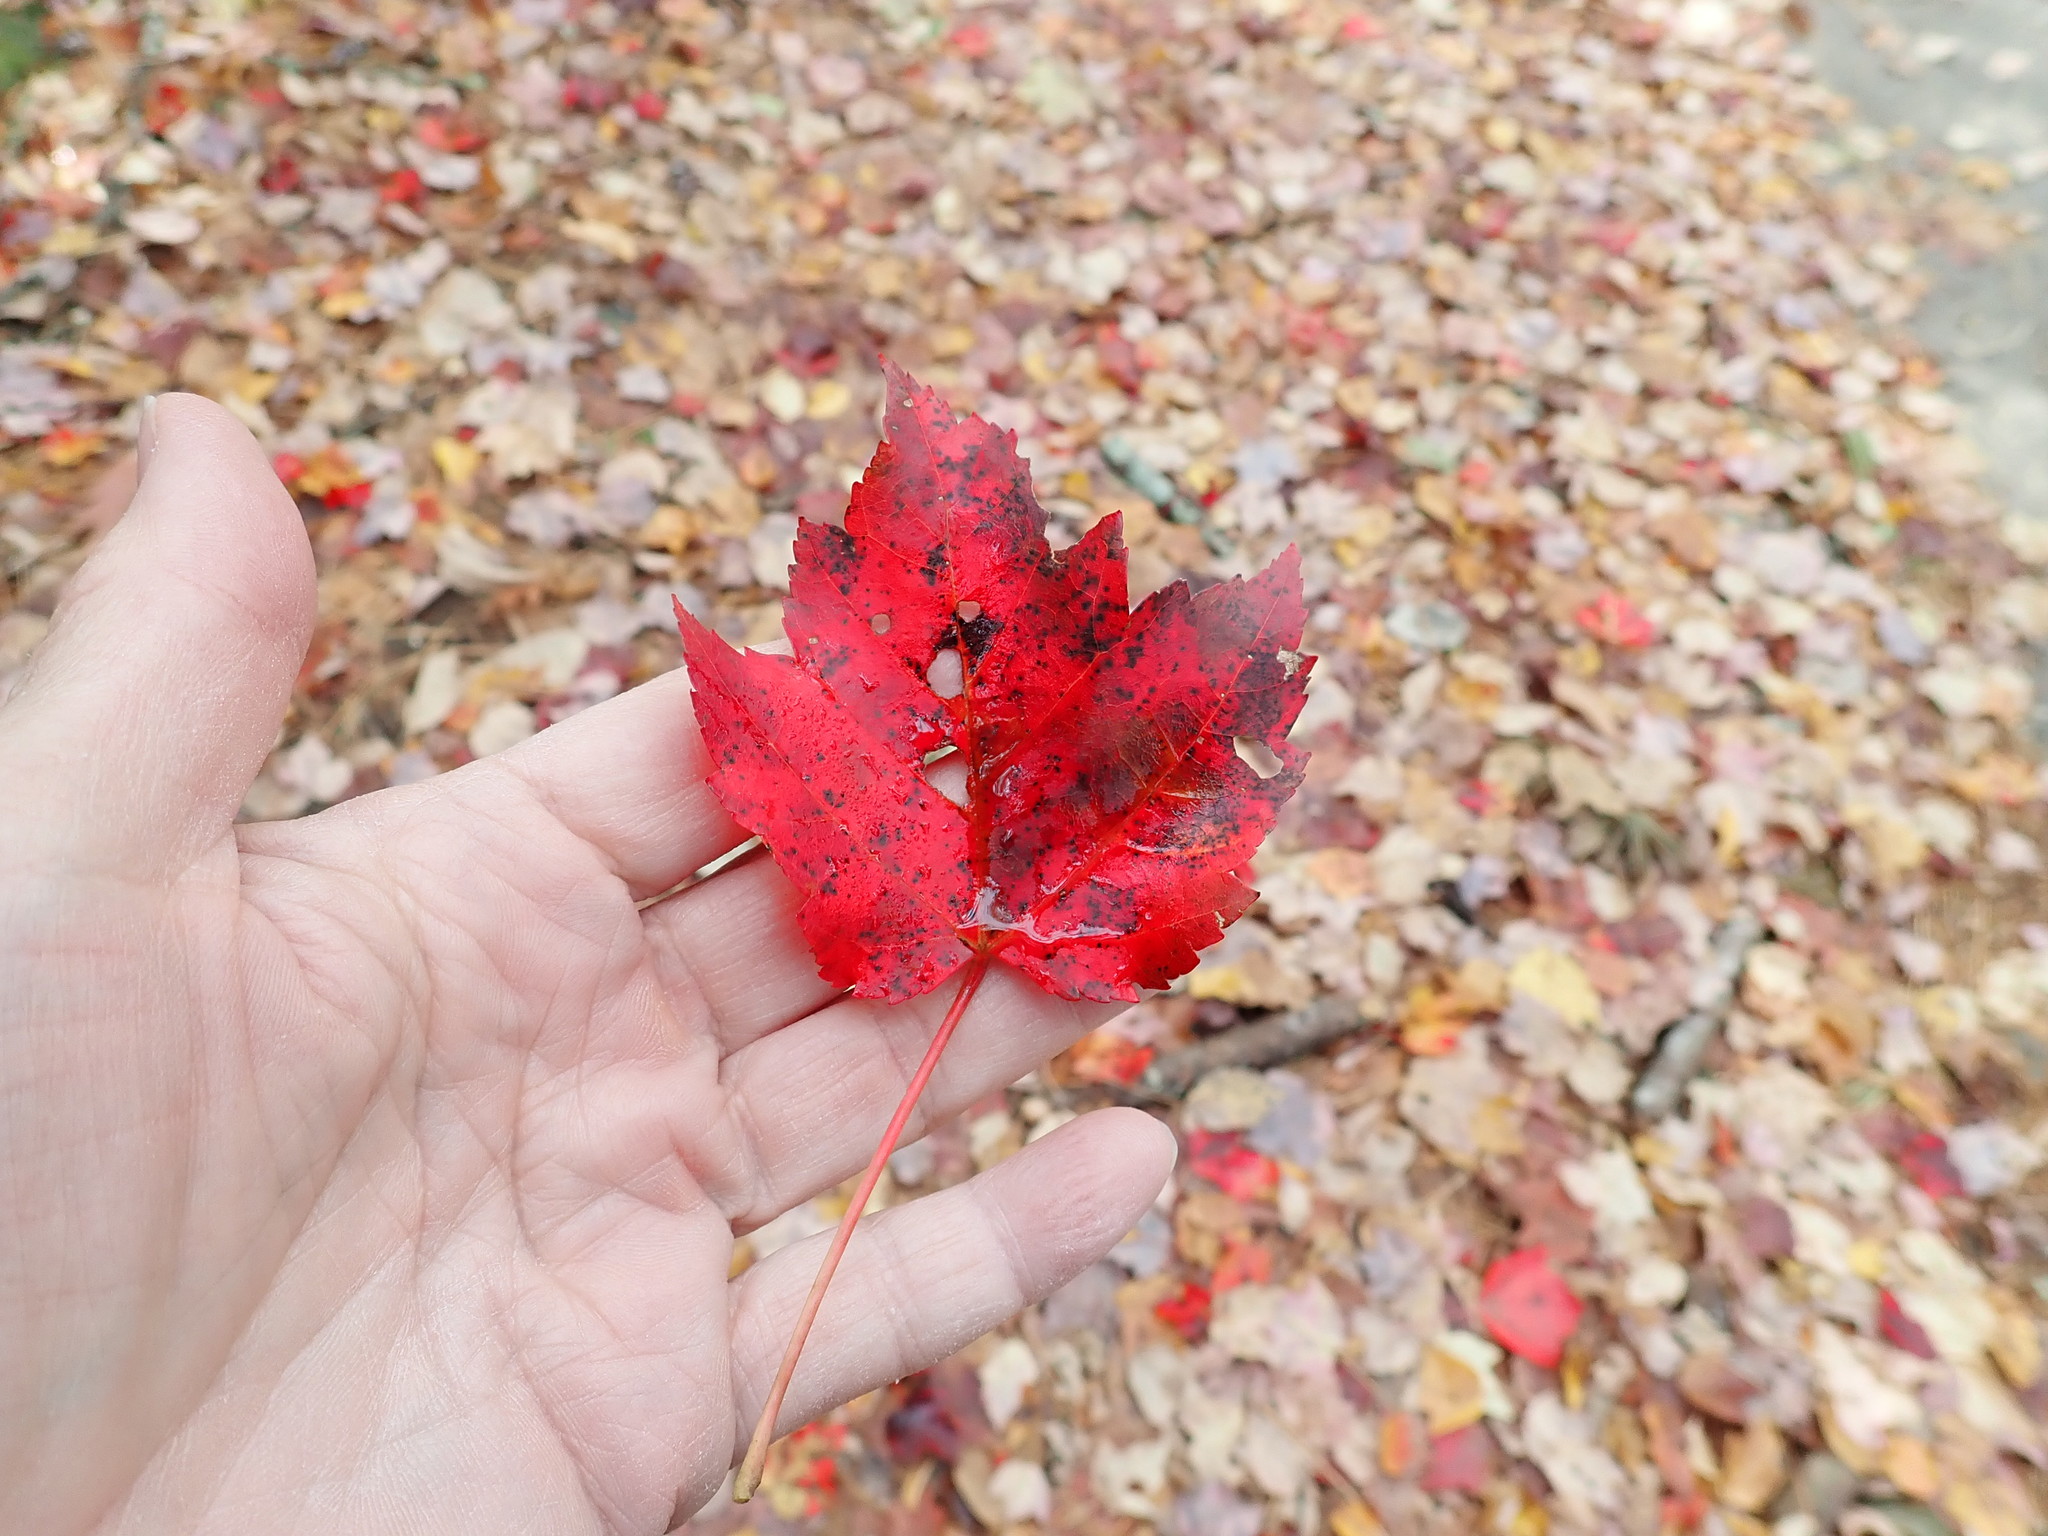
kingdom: Plantae
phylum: Tracheophyta
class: Magnoliopsida
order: Sapindales
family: Sapindaceae
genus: Acer
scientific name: Acer rubrum
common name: Red maple
